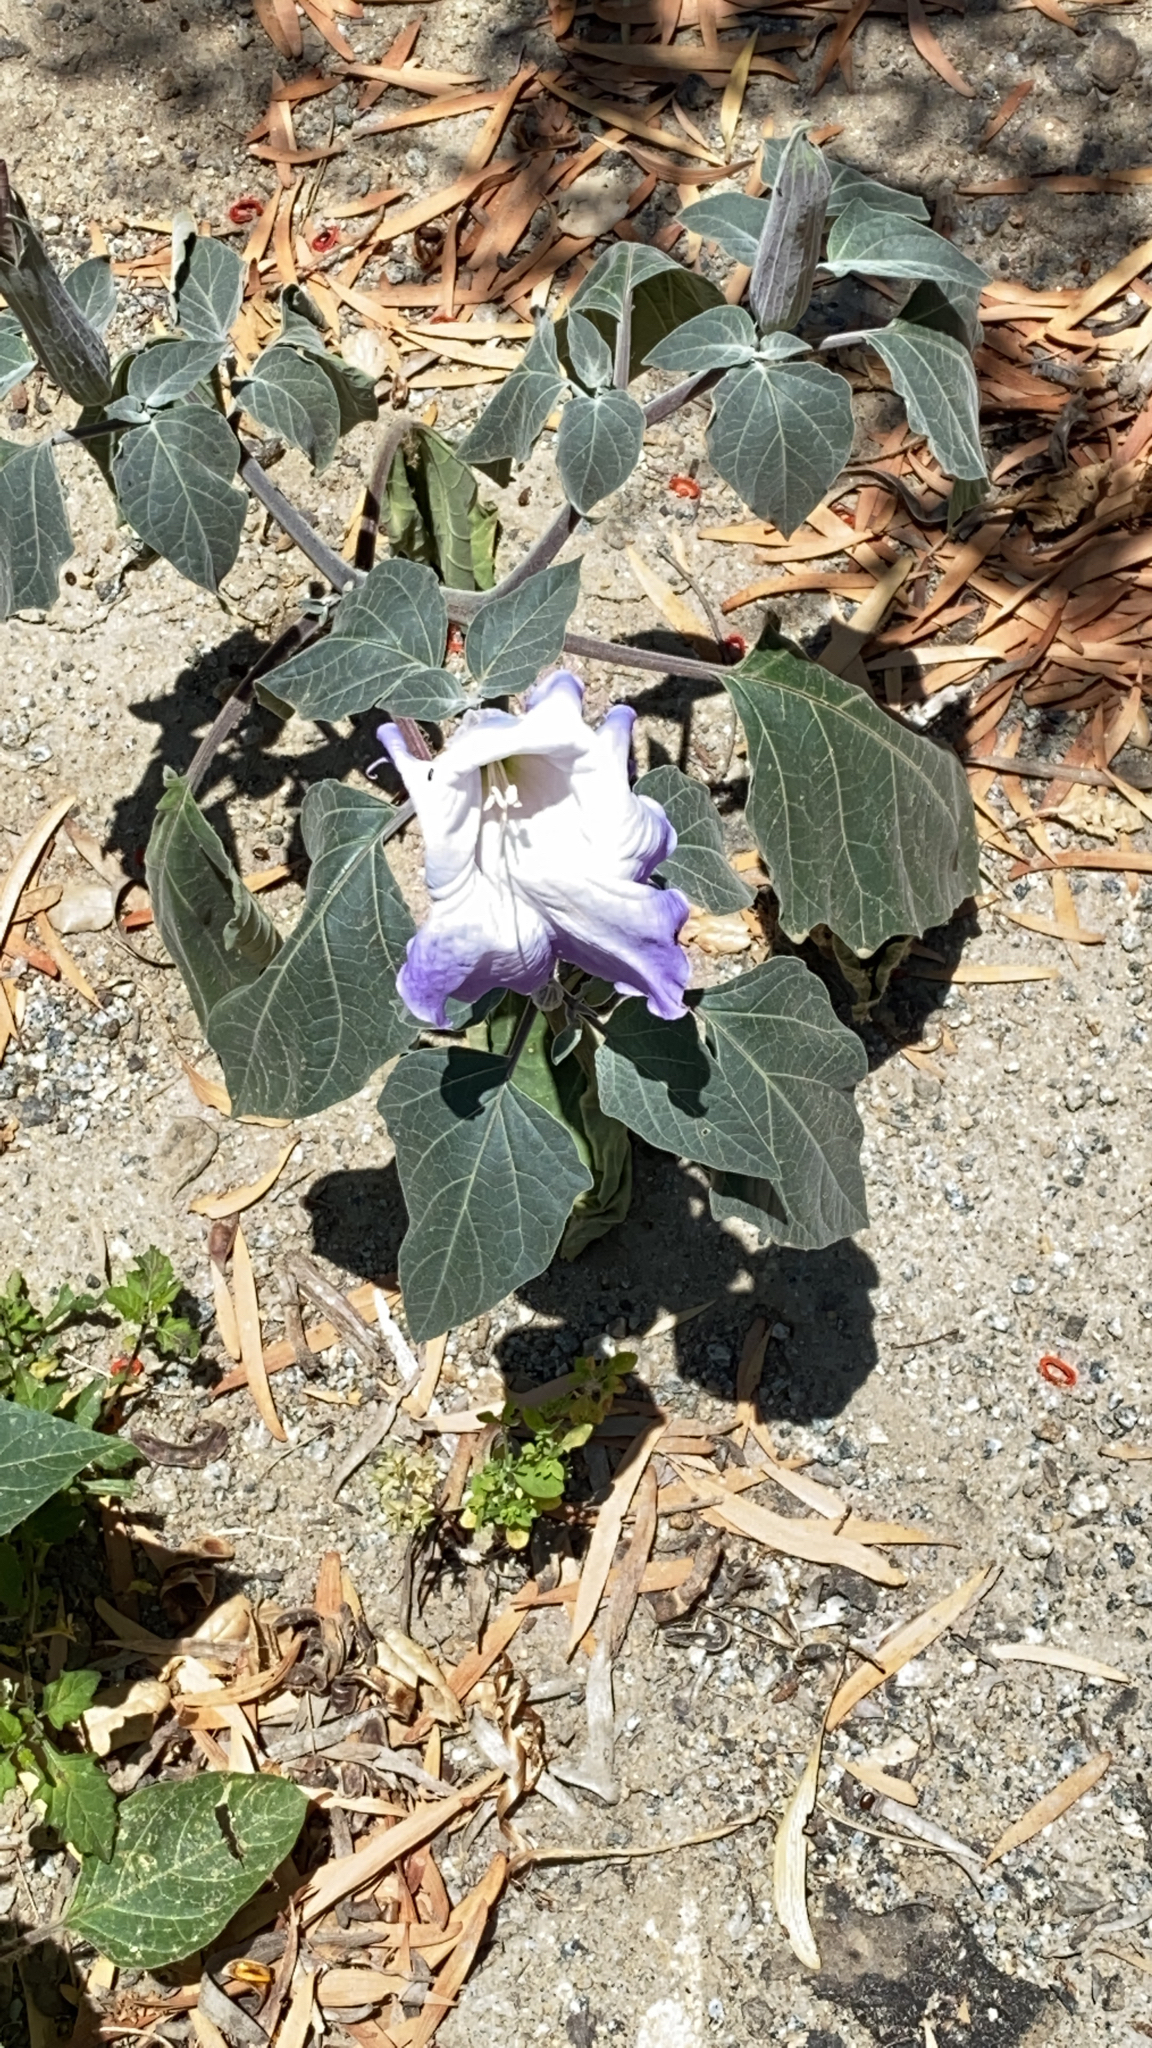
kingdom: Plantae
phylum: Tracheophyta
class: Magnoliopsida
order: Solanales
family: Solanaceae
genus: Datura
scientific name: Datura wrightii
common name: Sacred thorn-apple
